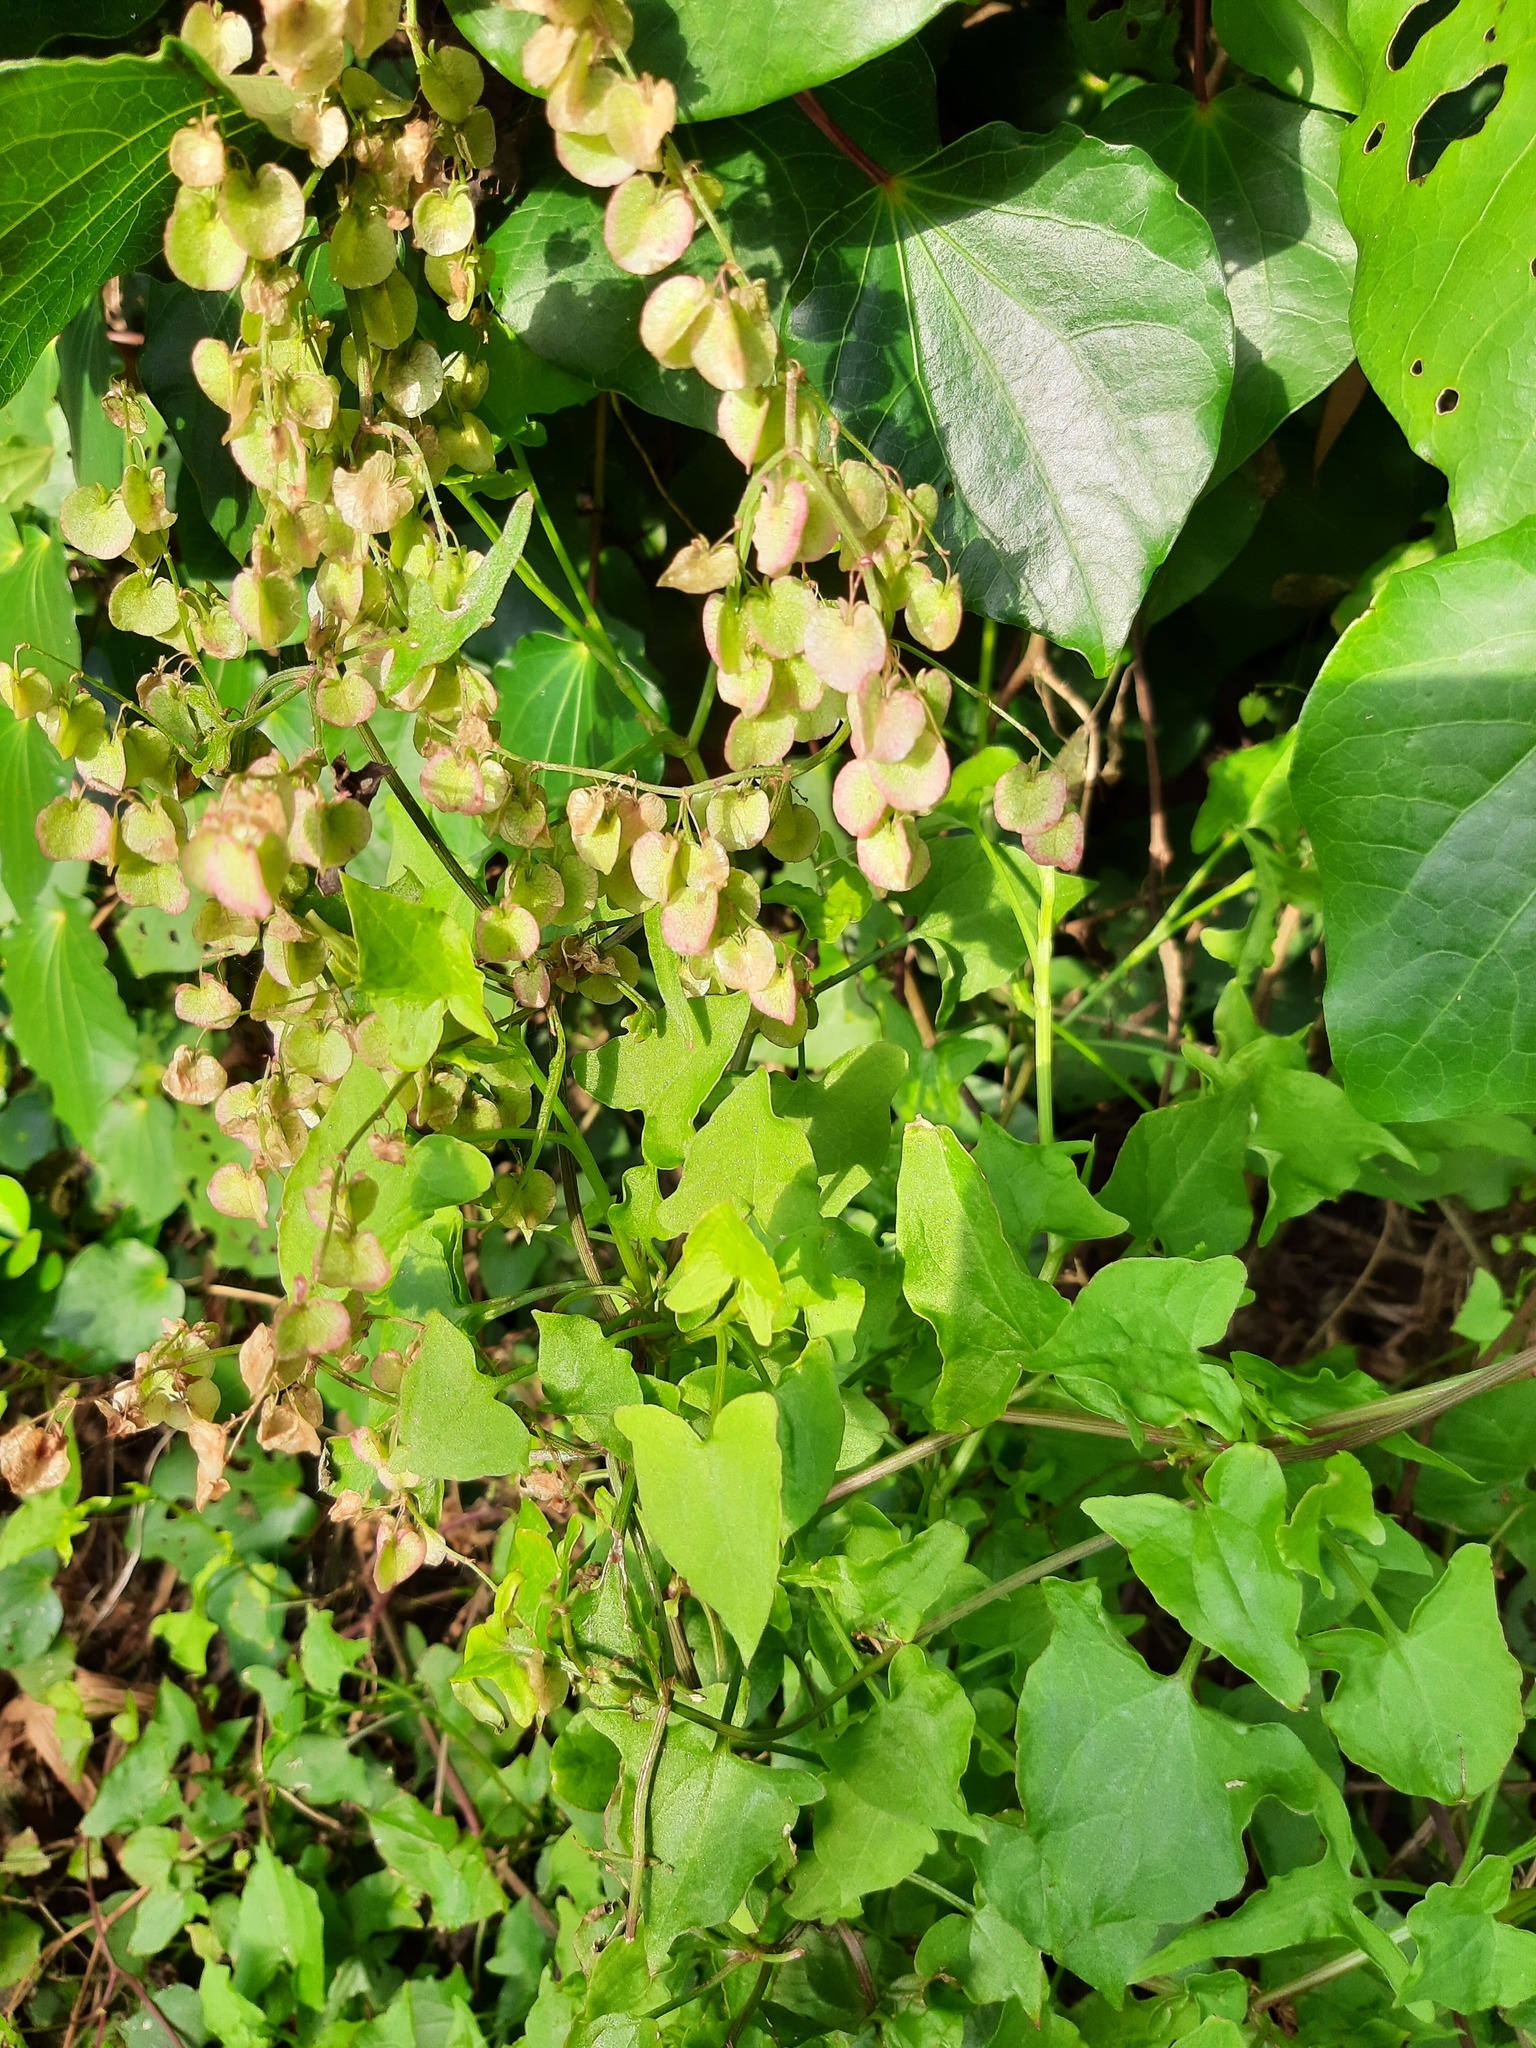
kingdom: Plantae
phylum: Tracheophyta
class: Magnoliopsida
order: Caryophyllales
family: Polygonaceae
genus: Rumex
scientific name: Rumex sagittatus
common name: Climbing dock
